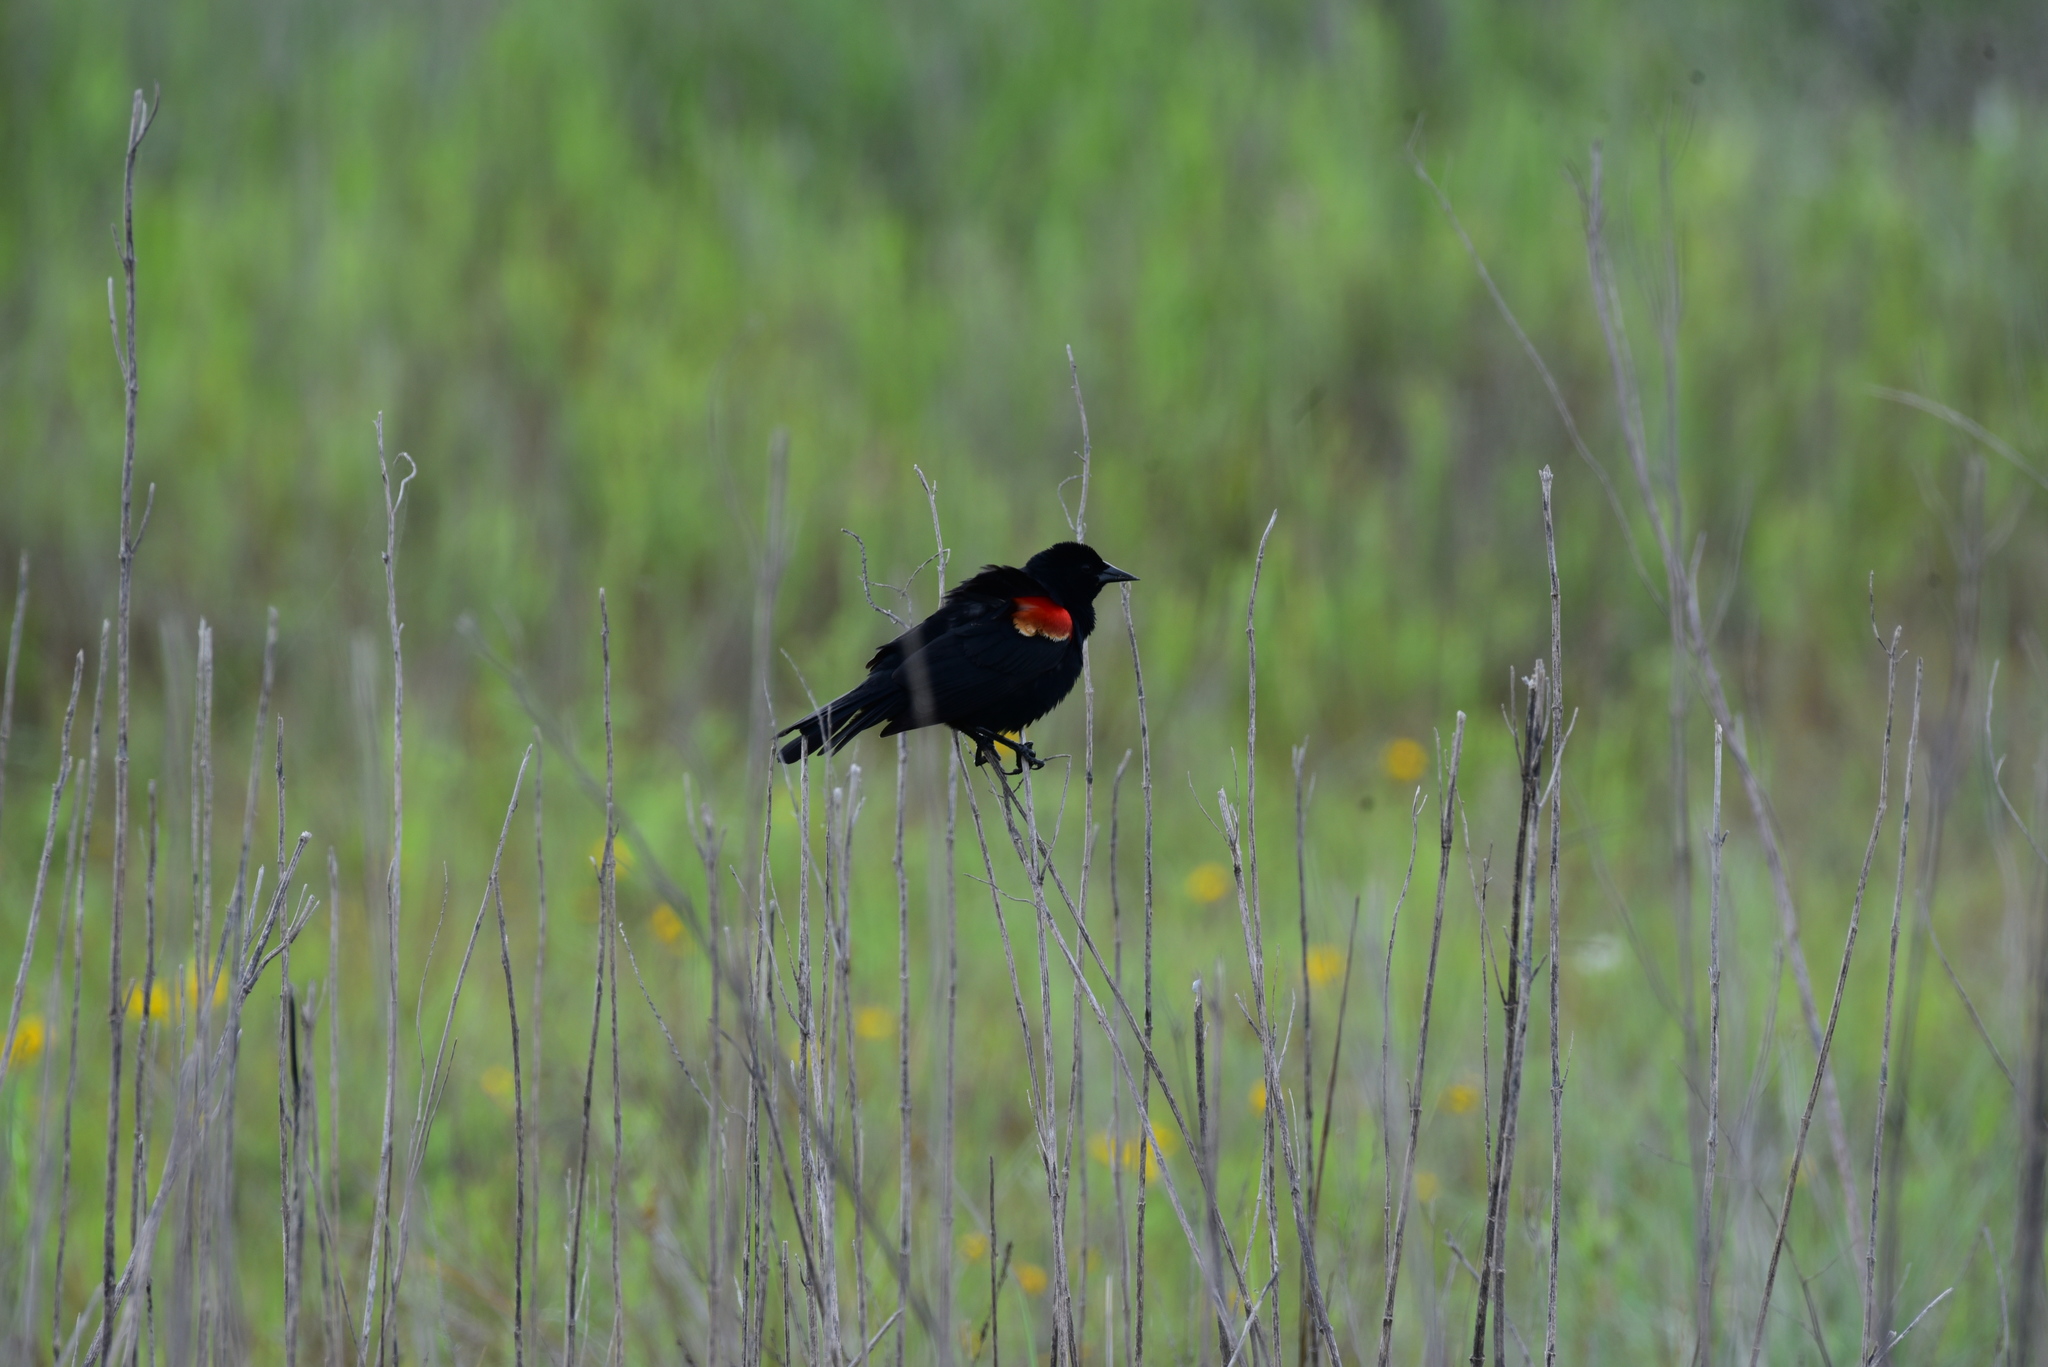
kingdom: Animalia
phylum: Chordata
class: Aves
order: Passeriformes
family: Icteridae
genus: Agelaius
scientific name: Agelaius phoeniceus
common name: Red-winged blackbird
